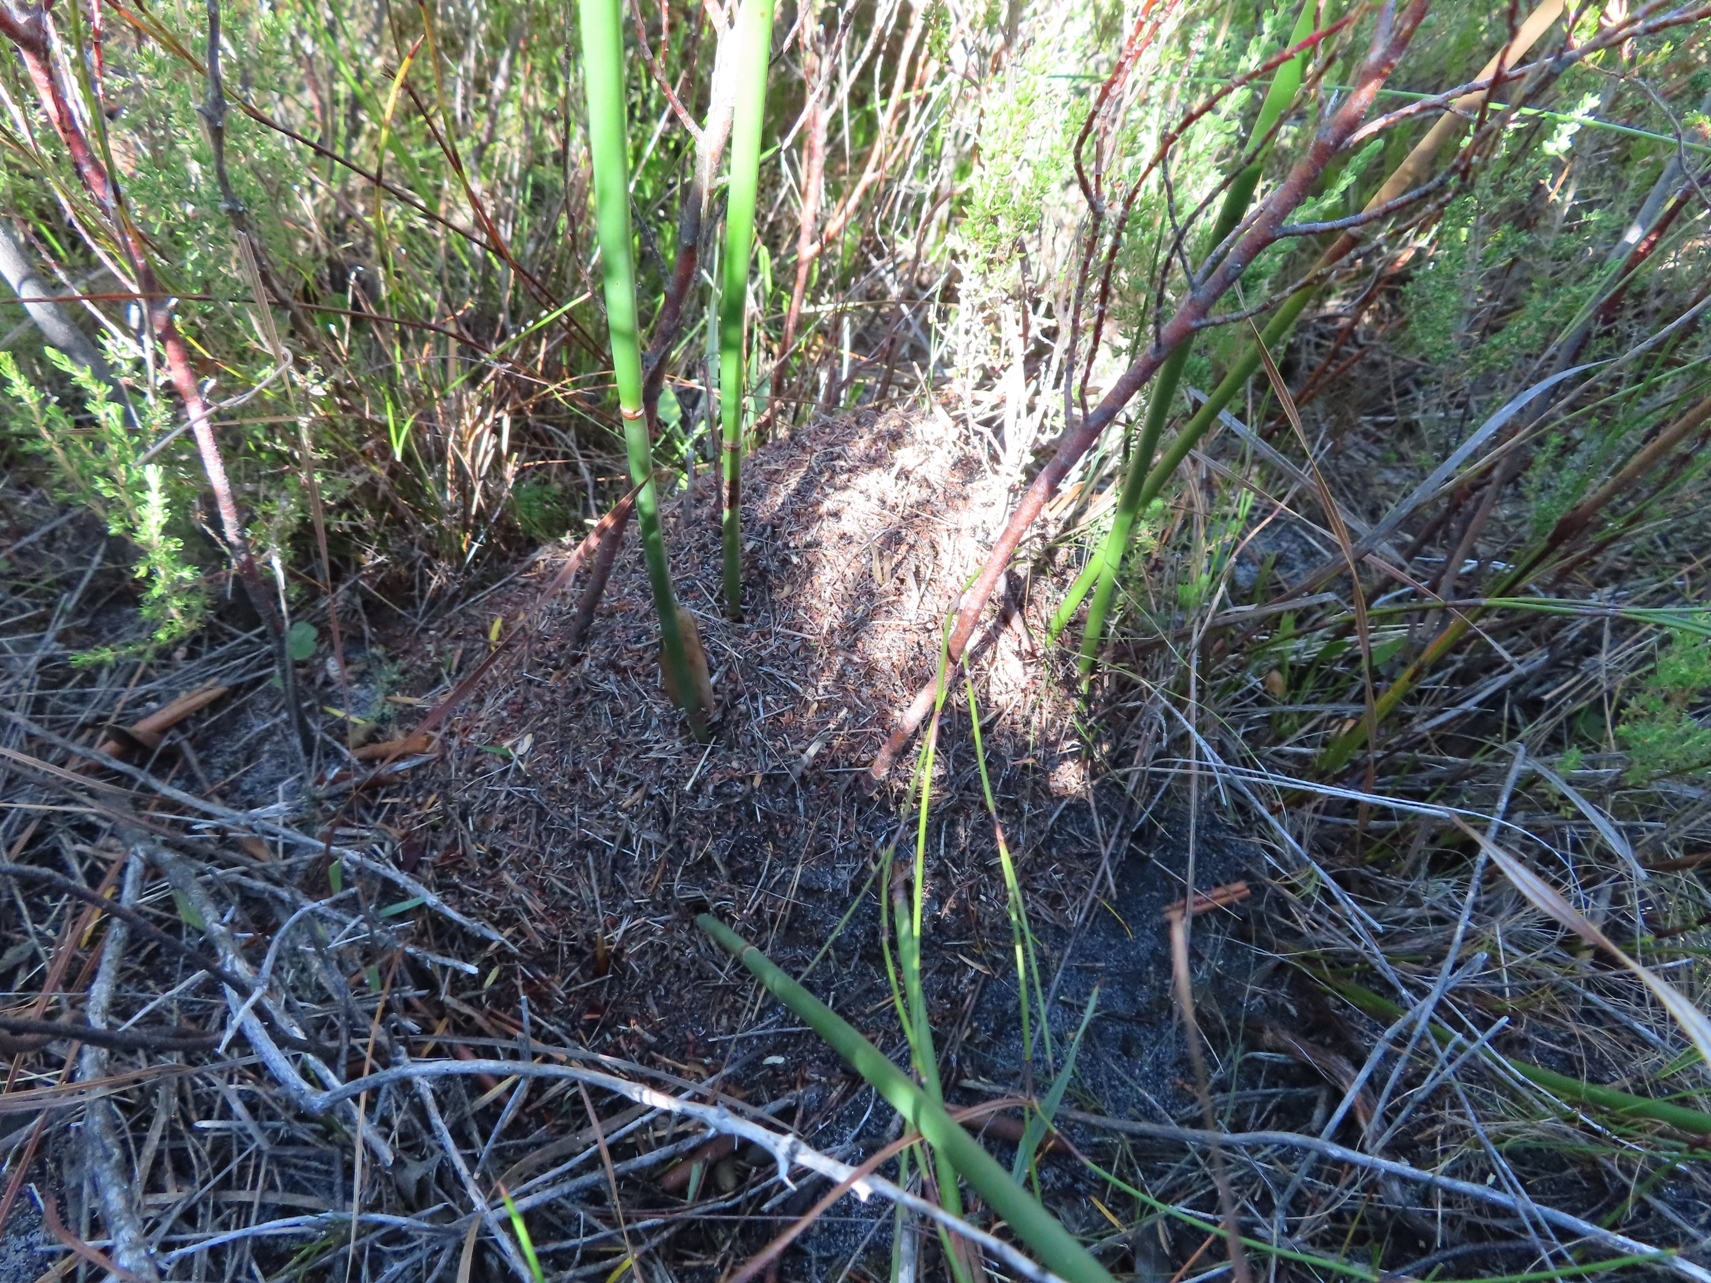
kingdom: Animalia
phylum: Arthropoda
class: Insecta
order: Hymenoptera
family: Formicidae
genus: Myrmicaria
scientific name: Myrmicaria nigra
